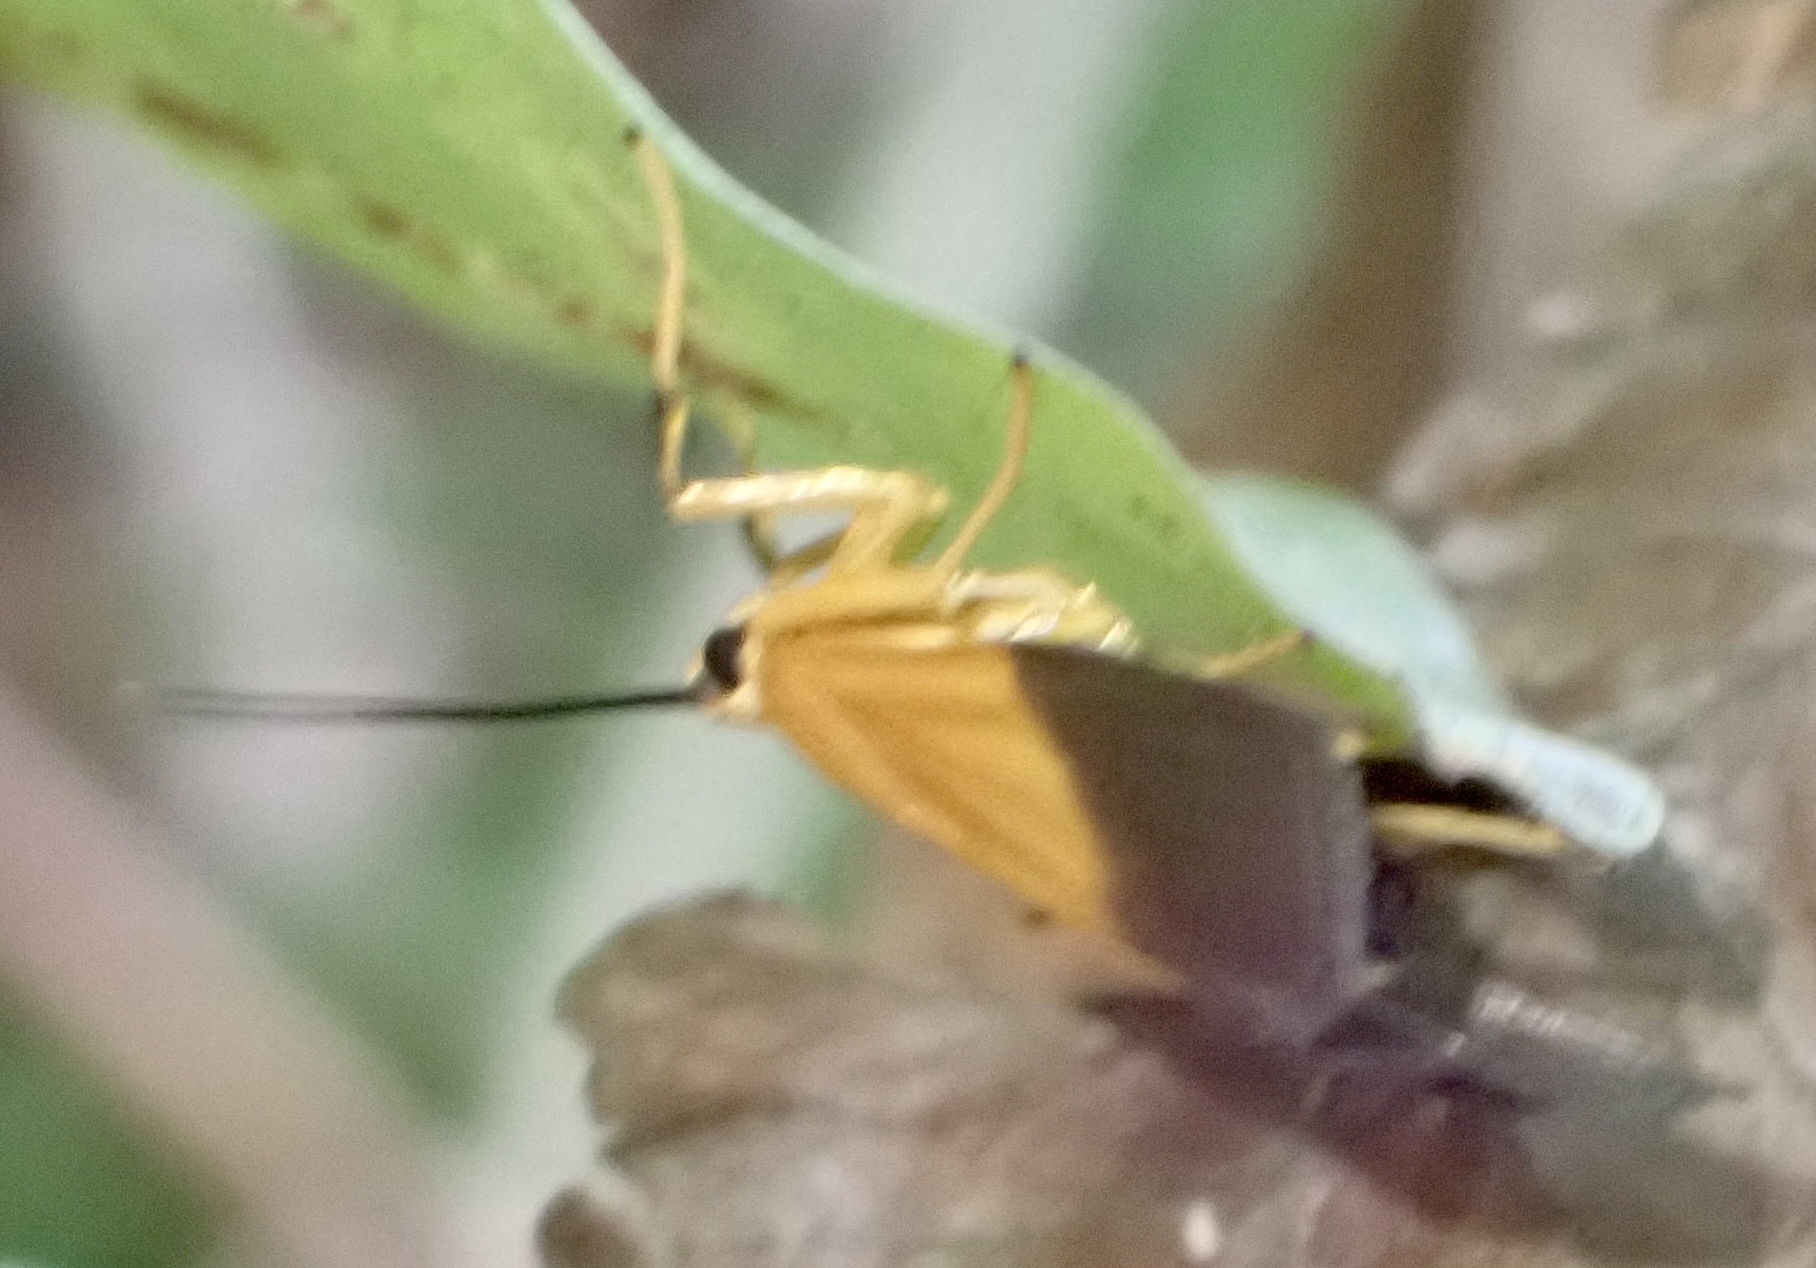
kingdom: Animalia
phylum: Arthropoda
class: Insecta
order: Lepidoptera
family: Crambidae
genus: Ulopeza
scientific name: Ulopeza conigeralis
